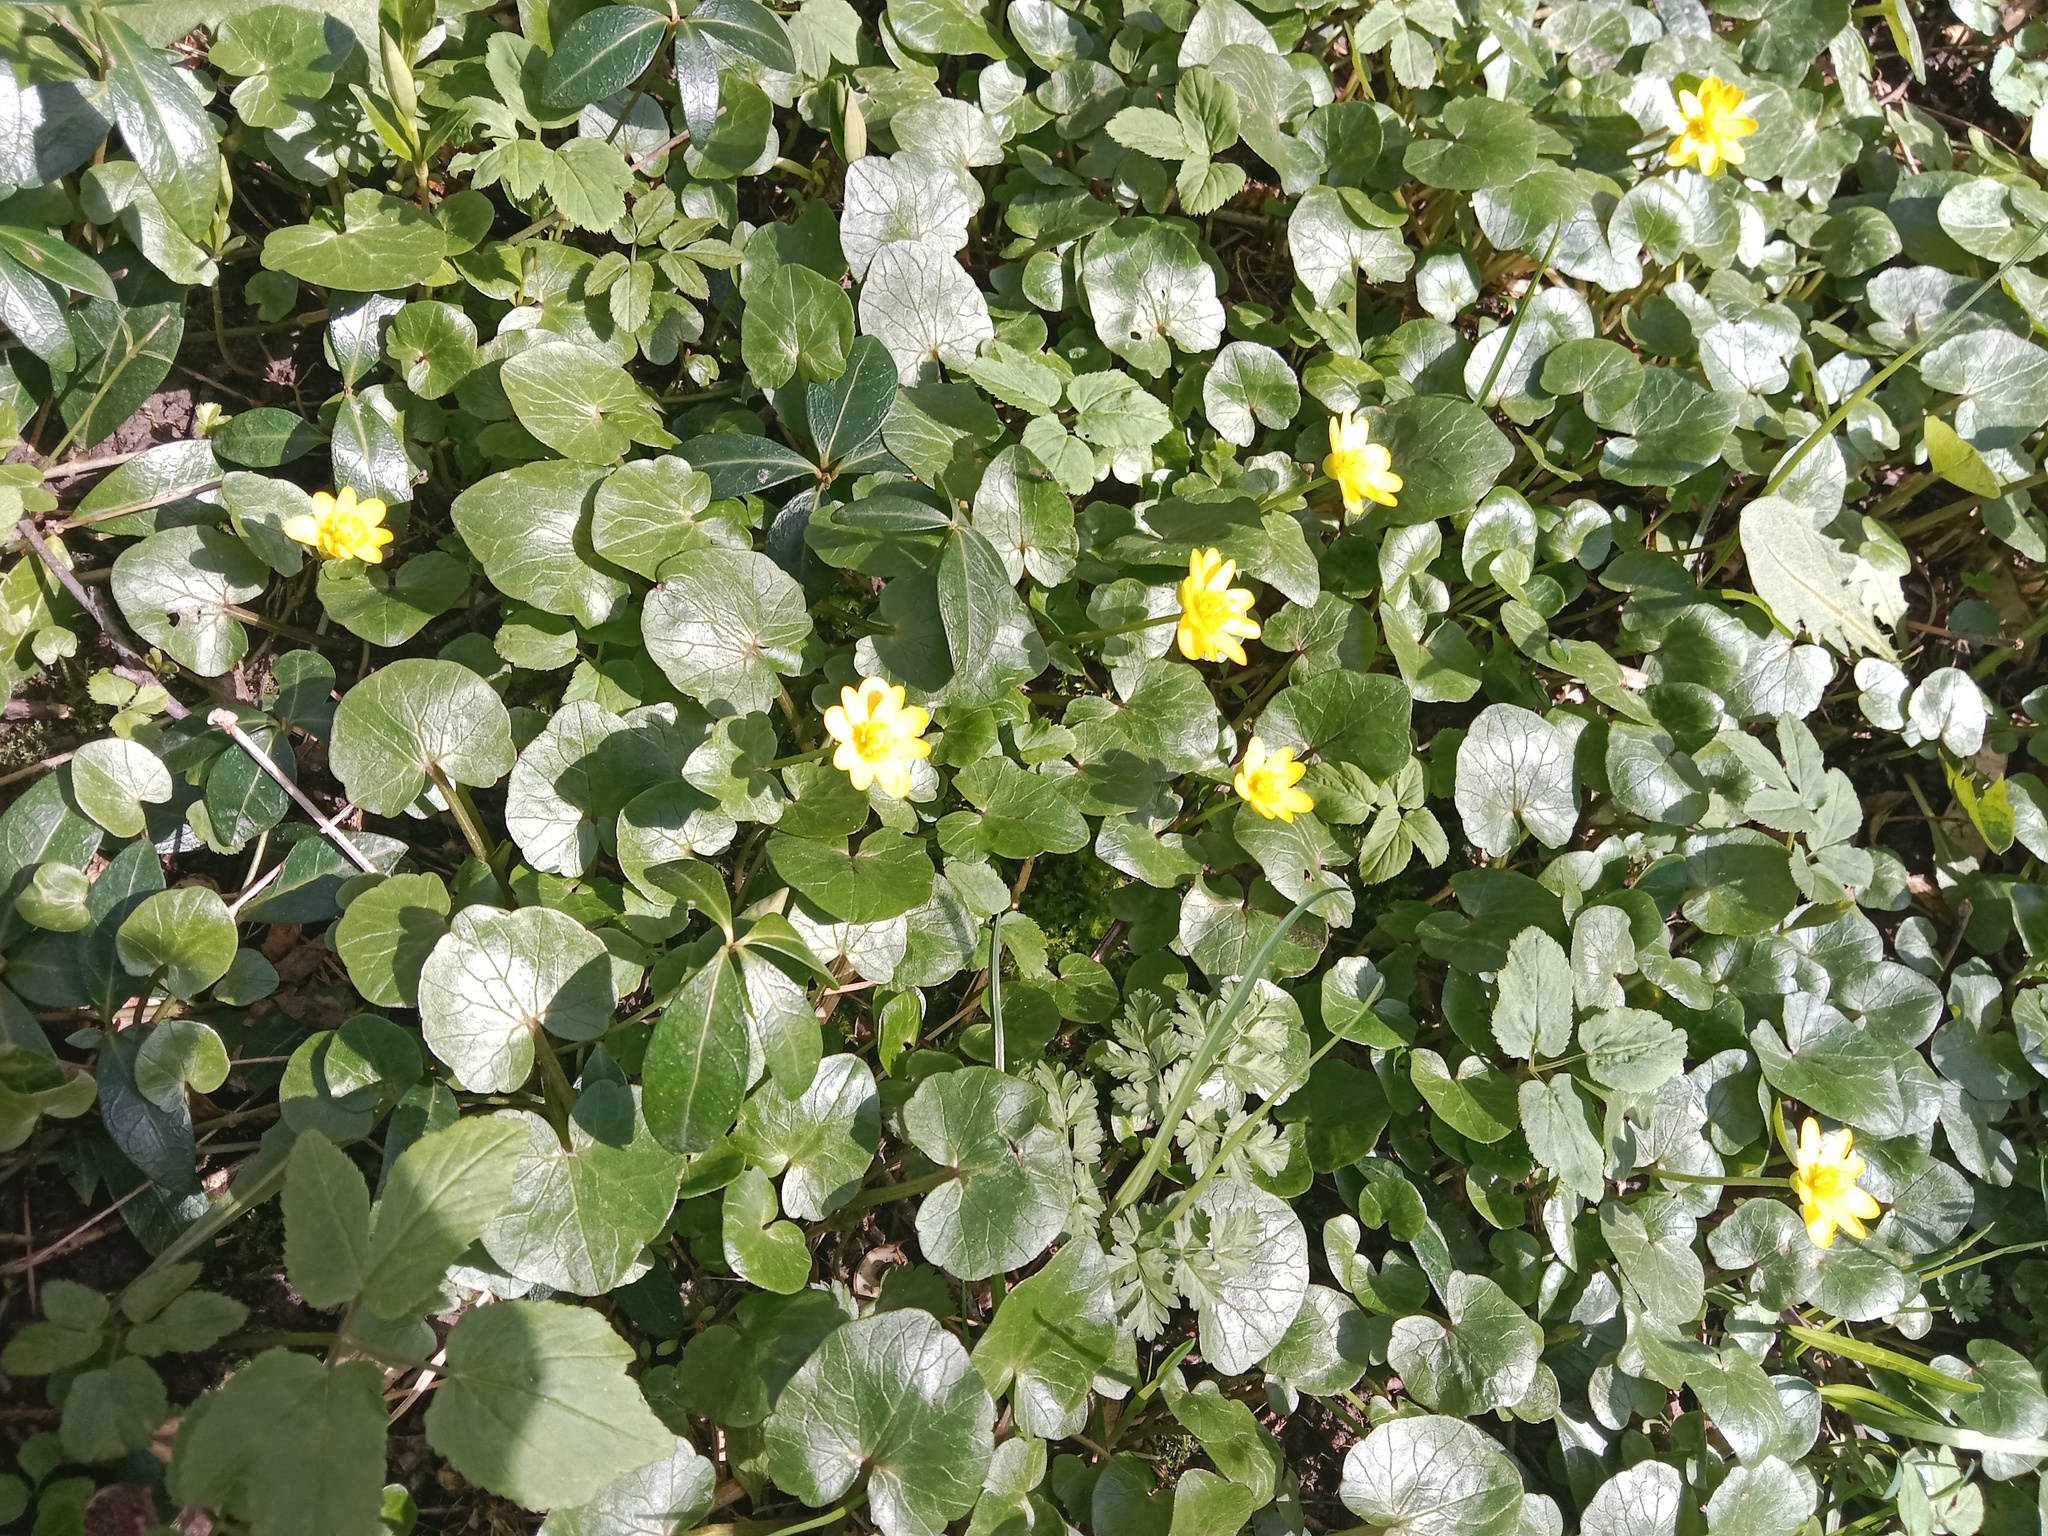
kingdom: Plantae
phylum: Tracheophyta
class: Magnoliopsida
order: Ranunculales
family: Ranunculaceae
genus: Ficaria
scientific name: Ficaria verna
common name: Lesser celandine
